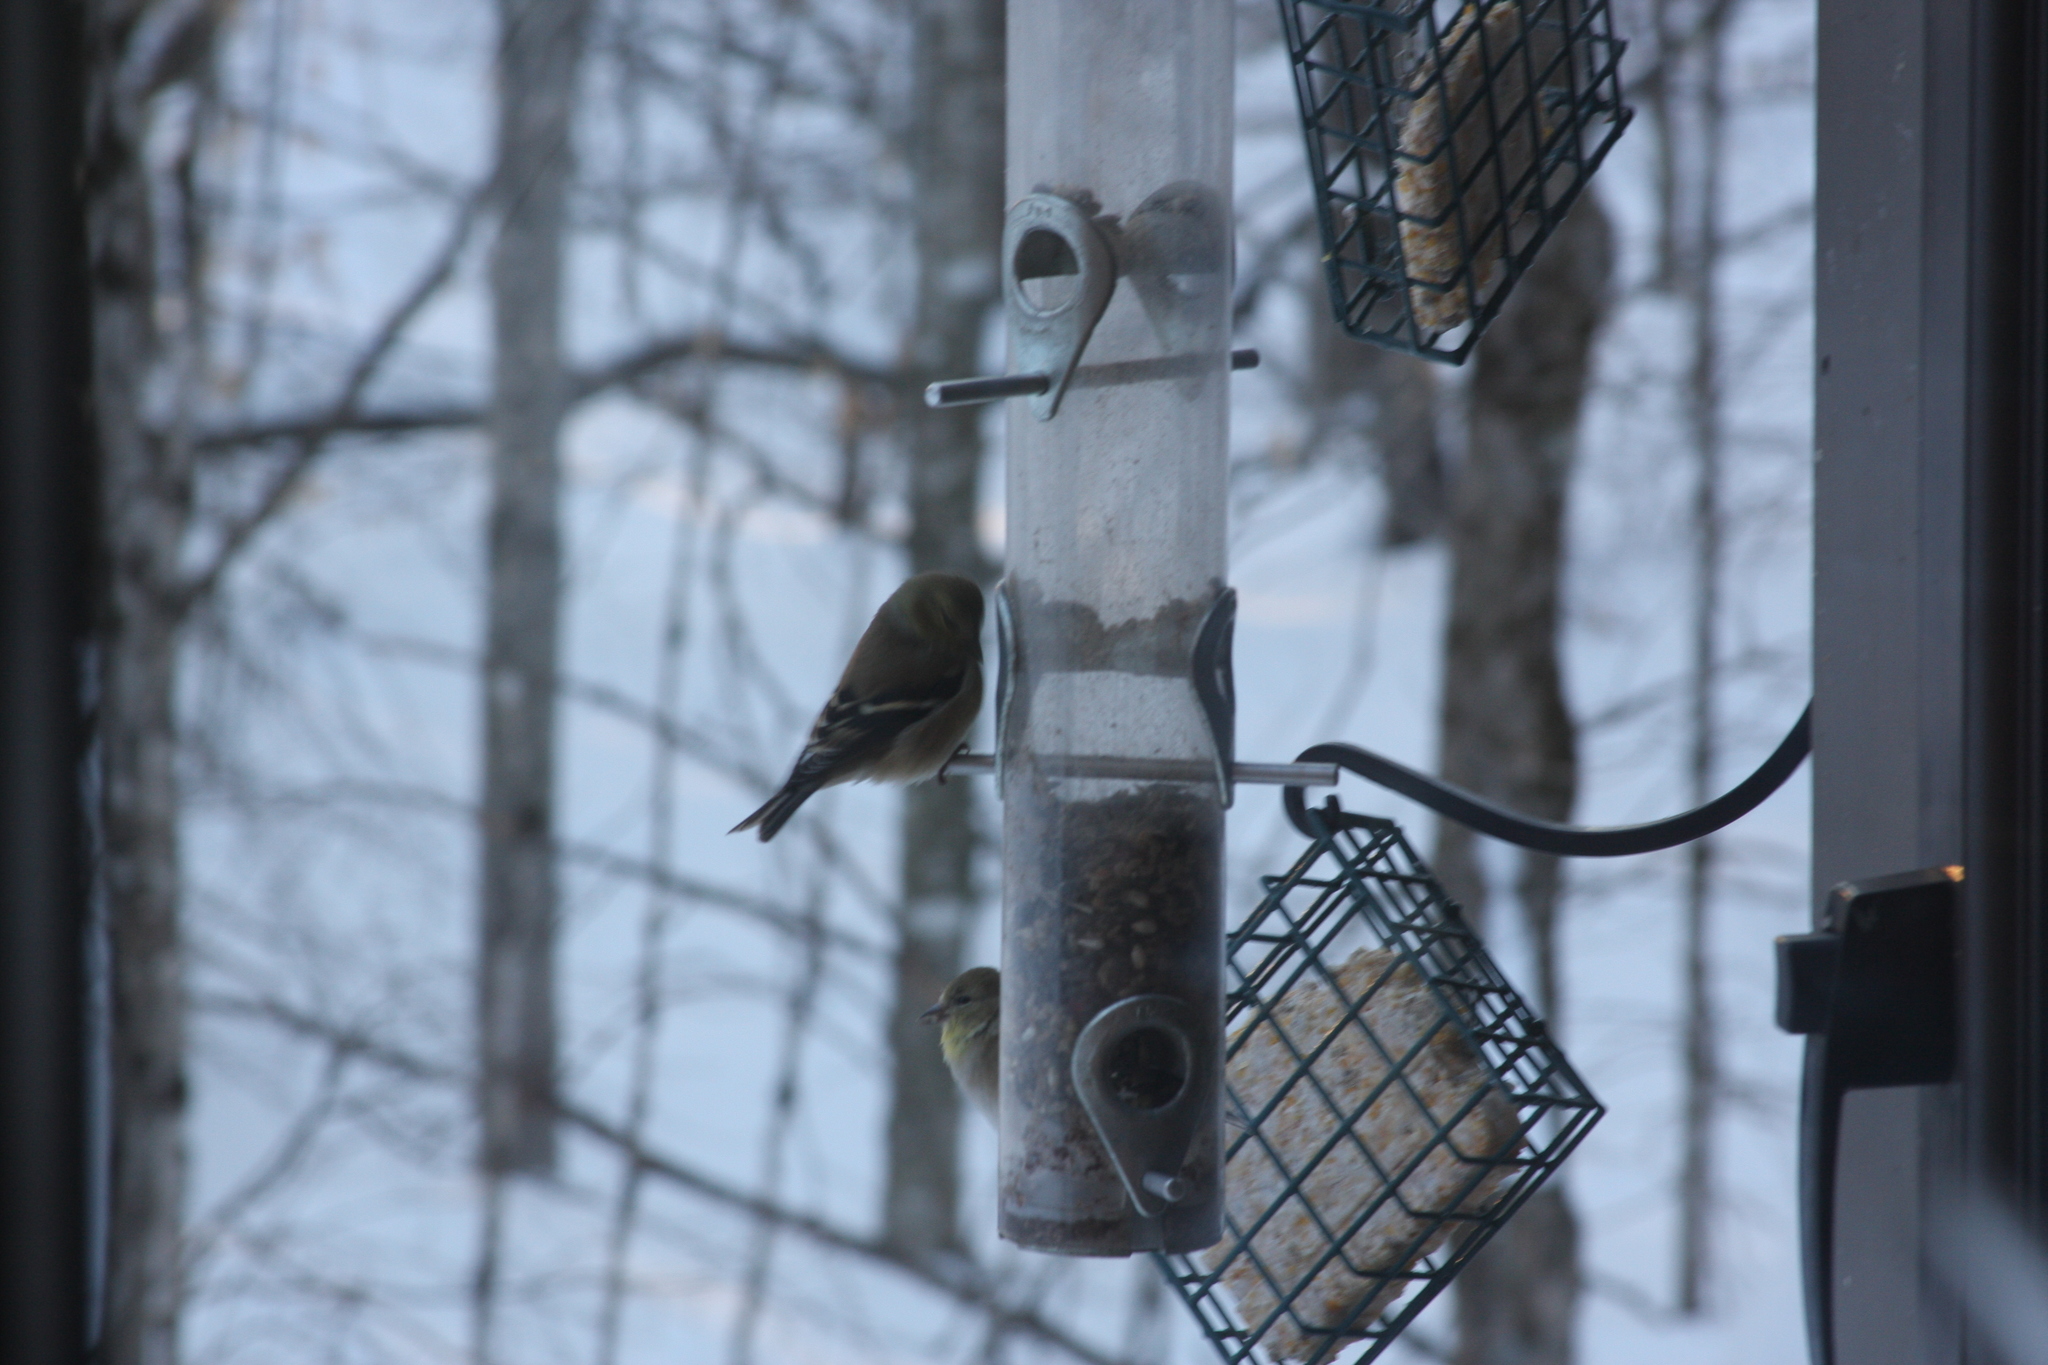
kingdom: Animalia
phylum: Chordata
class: Aves
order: Passeriformes
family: Fringillidae
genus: Spinus
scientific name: Spinus tristis
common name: American goldfinch
